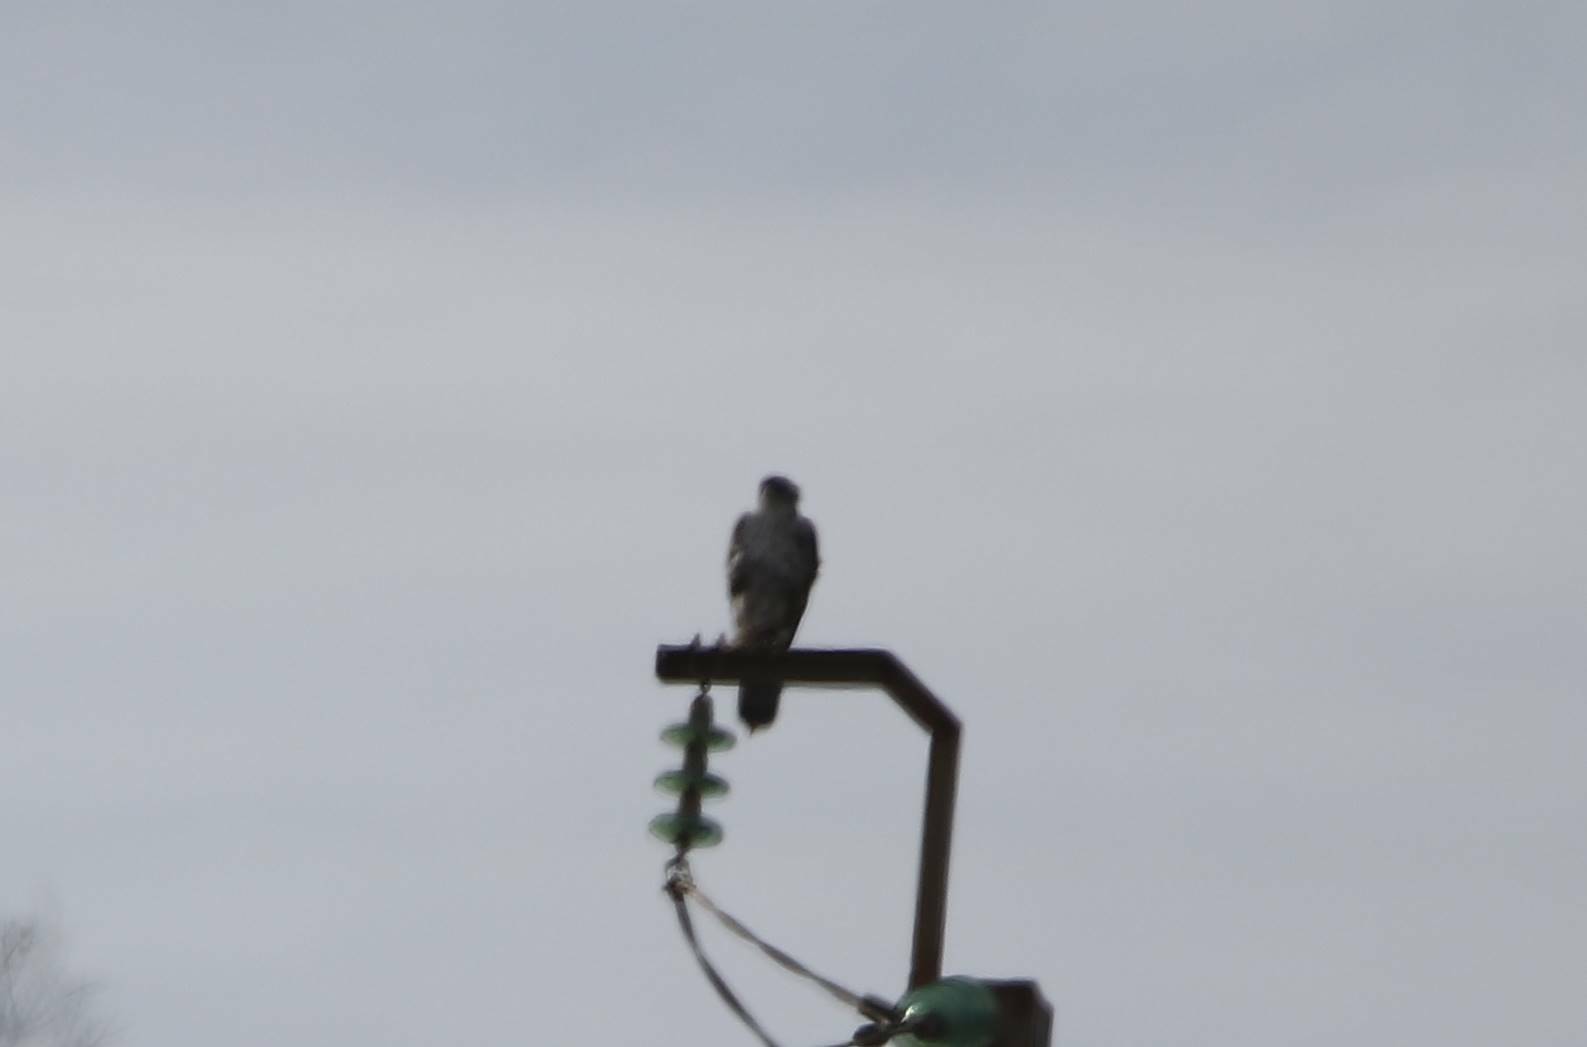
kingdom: Animalia
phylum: Chordata
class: Aves
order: Accipitriformes
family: Accipitridae
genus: Aquila
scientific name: Aquila fasciata
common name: Bonelli's eagle
